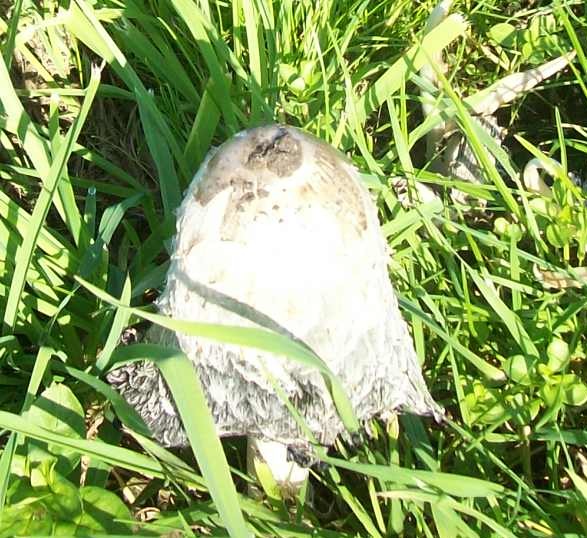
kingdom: Fungi
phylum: Basidiomycota
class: Agaricomycetes
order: Agaricales
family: Agaricaceae
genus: Coprinus
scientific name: Coprinus comatus
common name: Lawyer's wig
